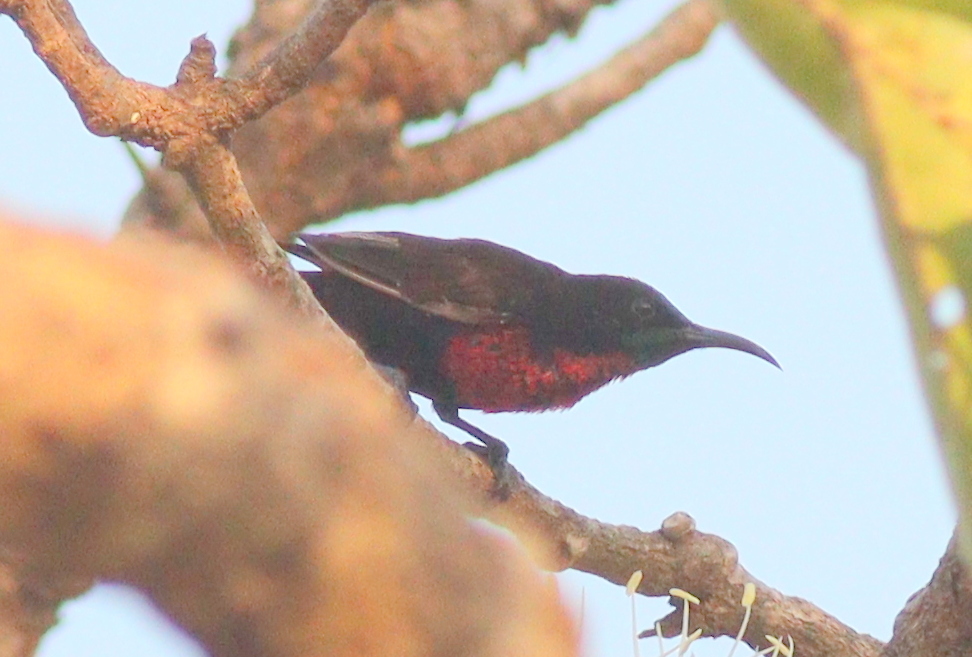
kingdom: Animalia
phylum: Chordata
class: Aves
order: Passeriformes
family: Nectariniidae
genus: Chalcomitra
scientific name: Chalcomitra senegalensis
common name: Scarlet-chested sunbird
